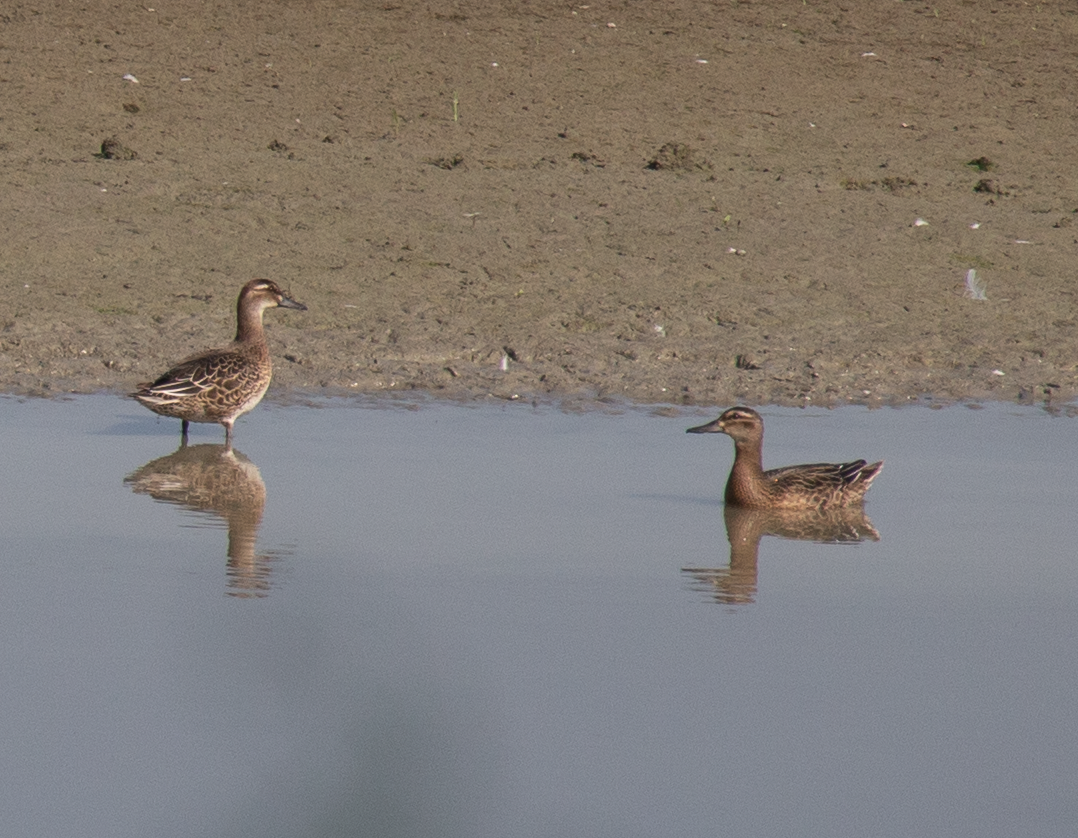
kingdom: Animalia
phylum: Chordata
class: Aves
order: Anseriformes
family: Anatidae
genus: Spatula
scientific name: Spatula querquedula
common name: Garganey
